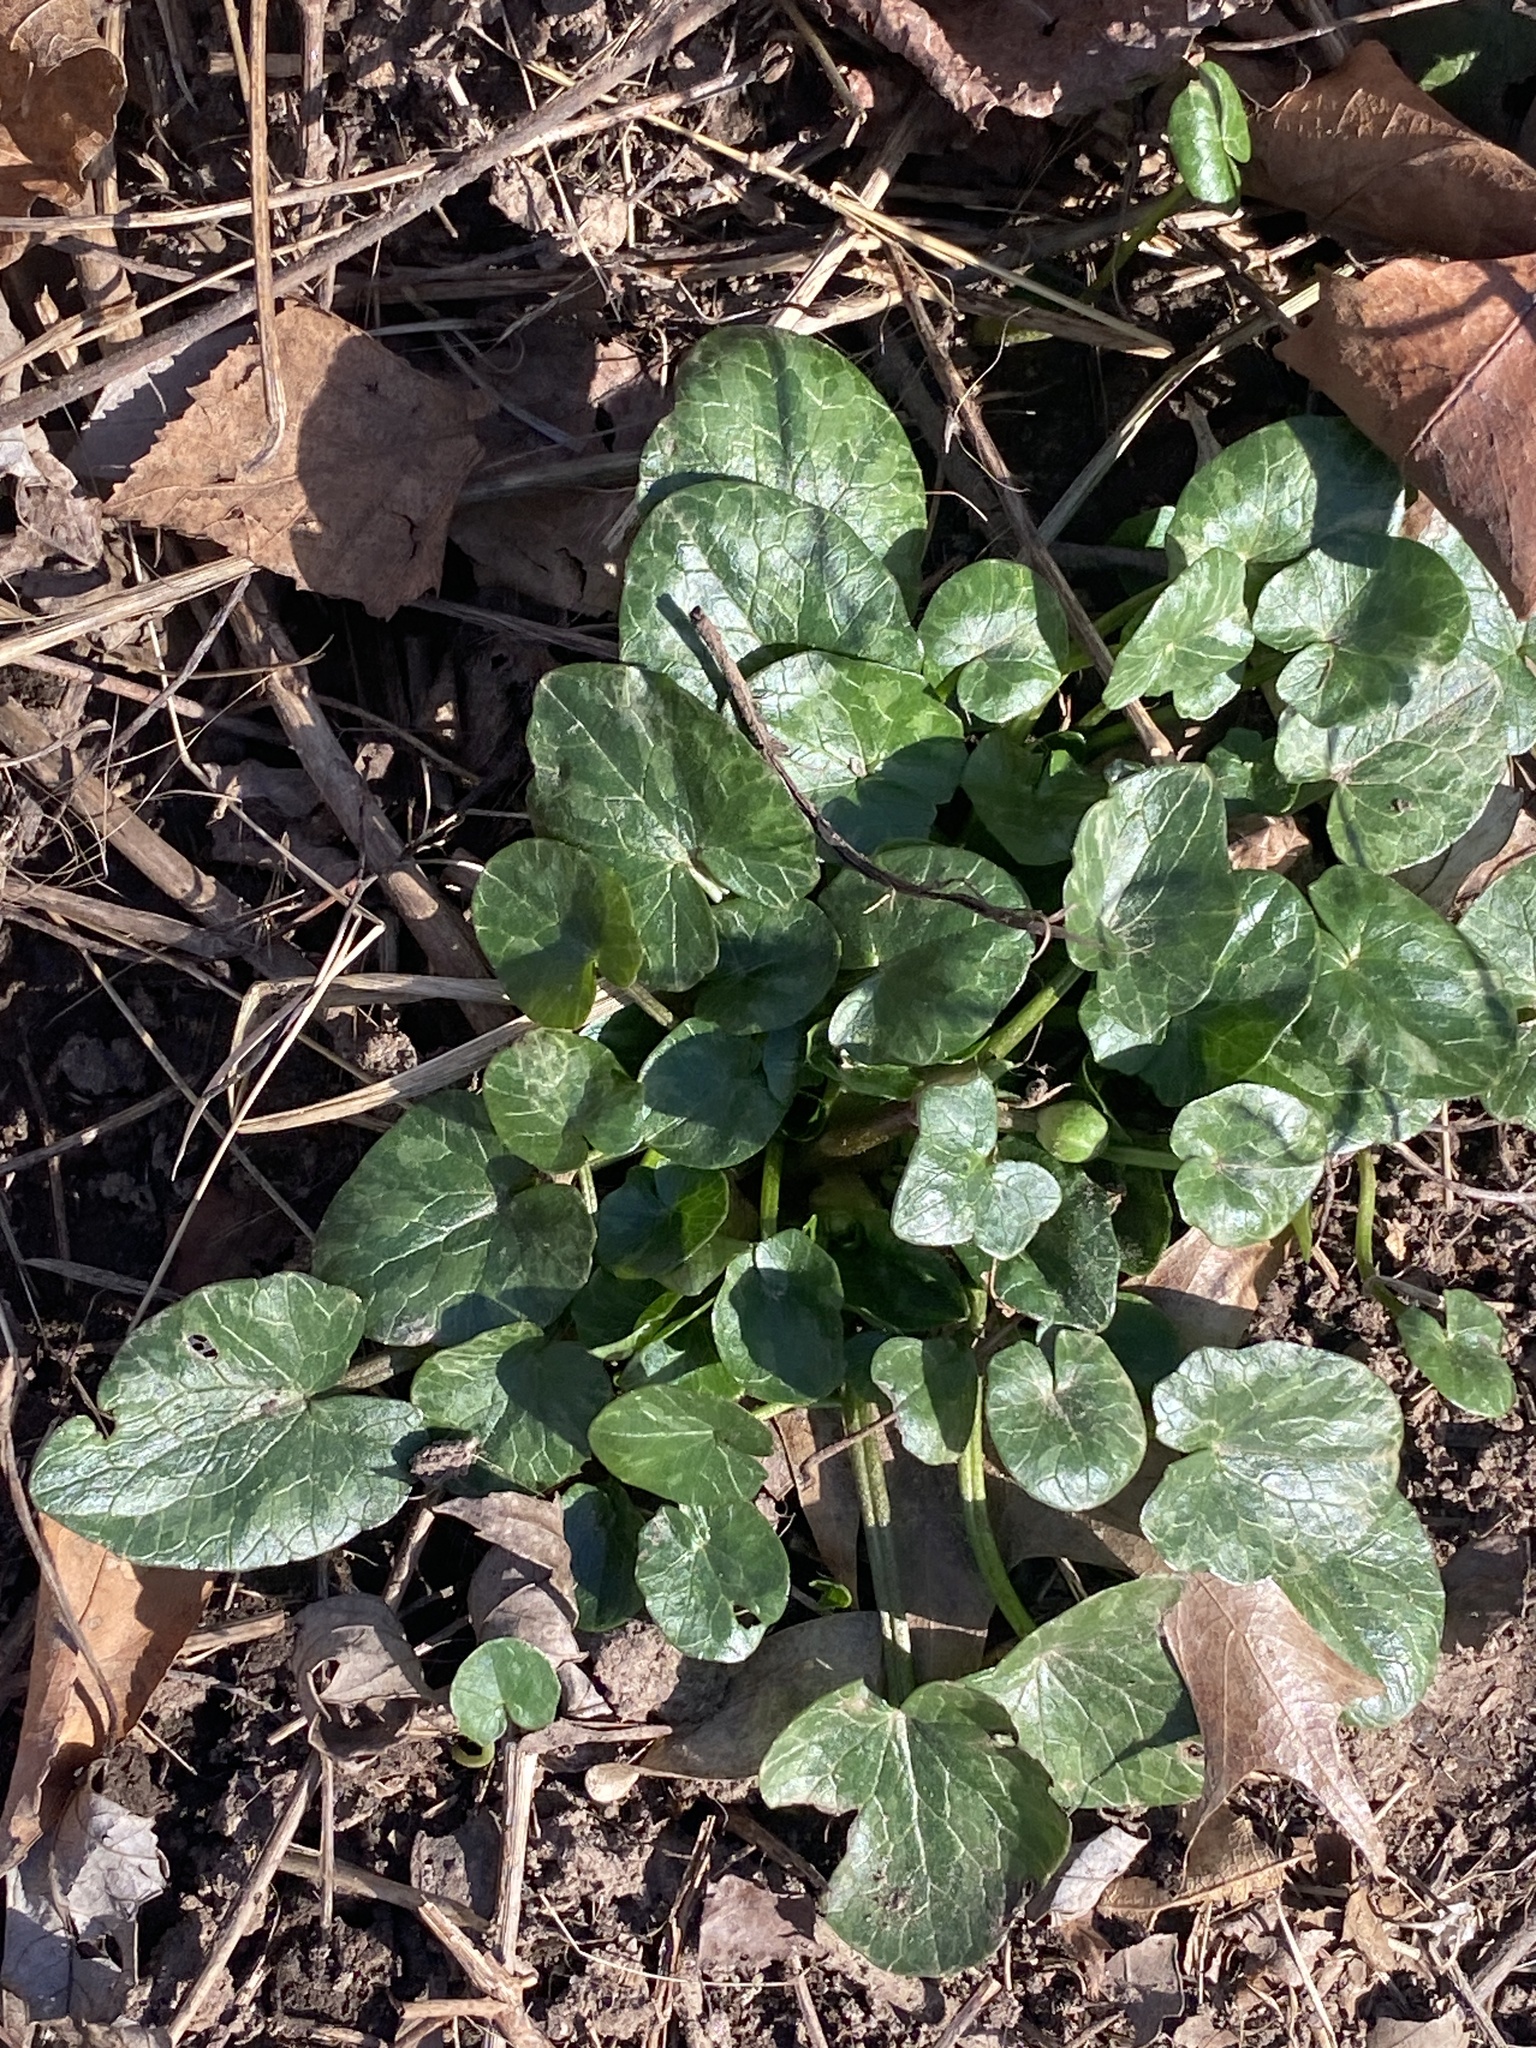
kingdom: Plantae
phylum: Tracheophyta
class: Magnoliopsida
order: Ranunculales
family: Ranunculaceae
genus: Ficaria
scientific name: Ficaria verna
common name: Lesser celandine
